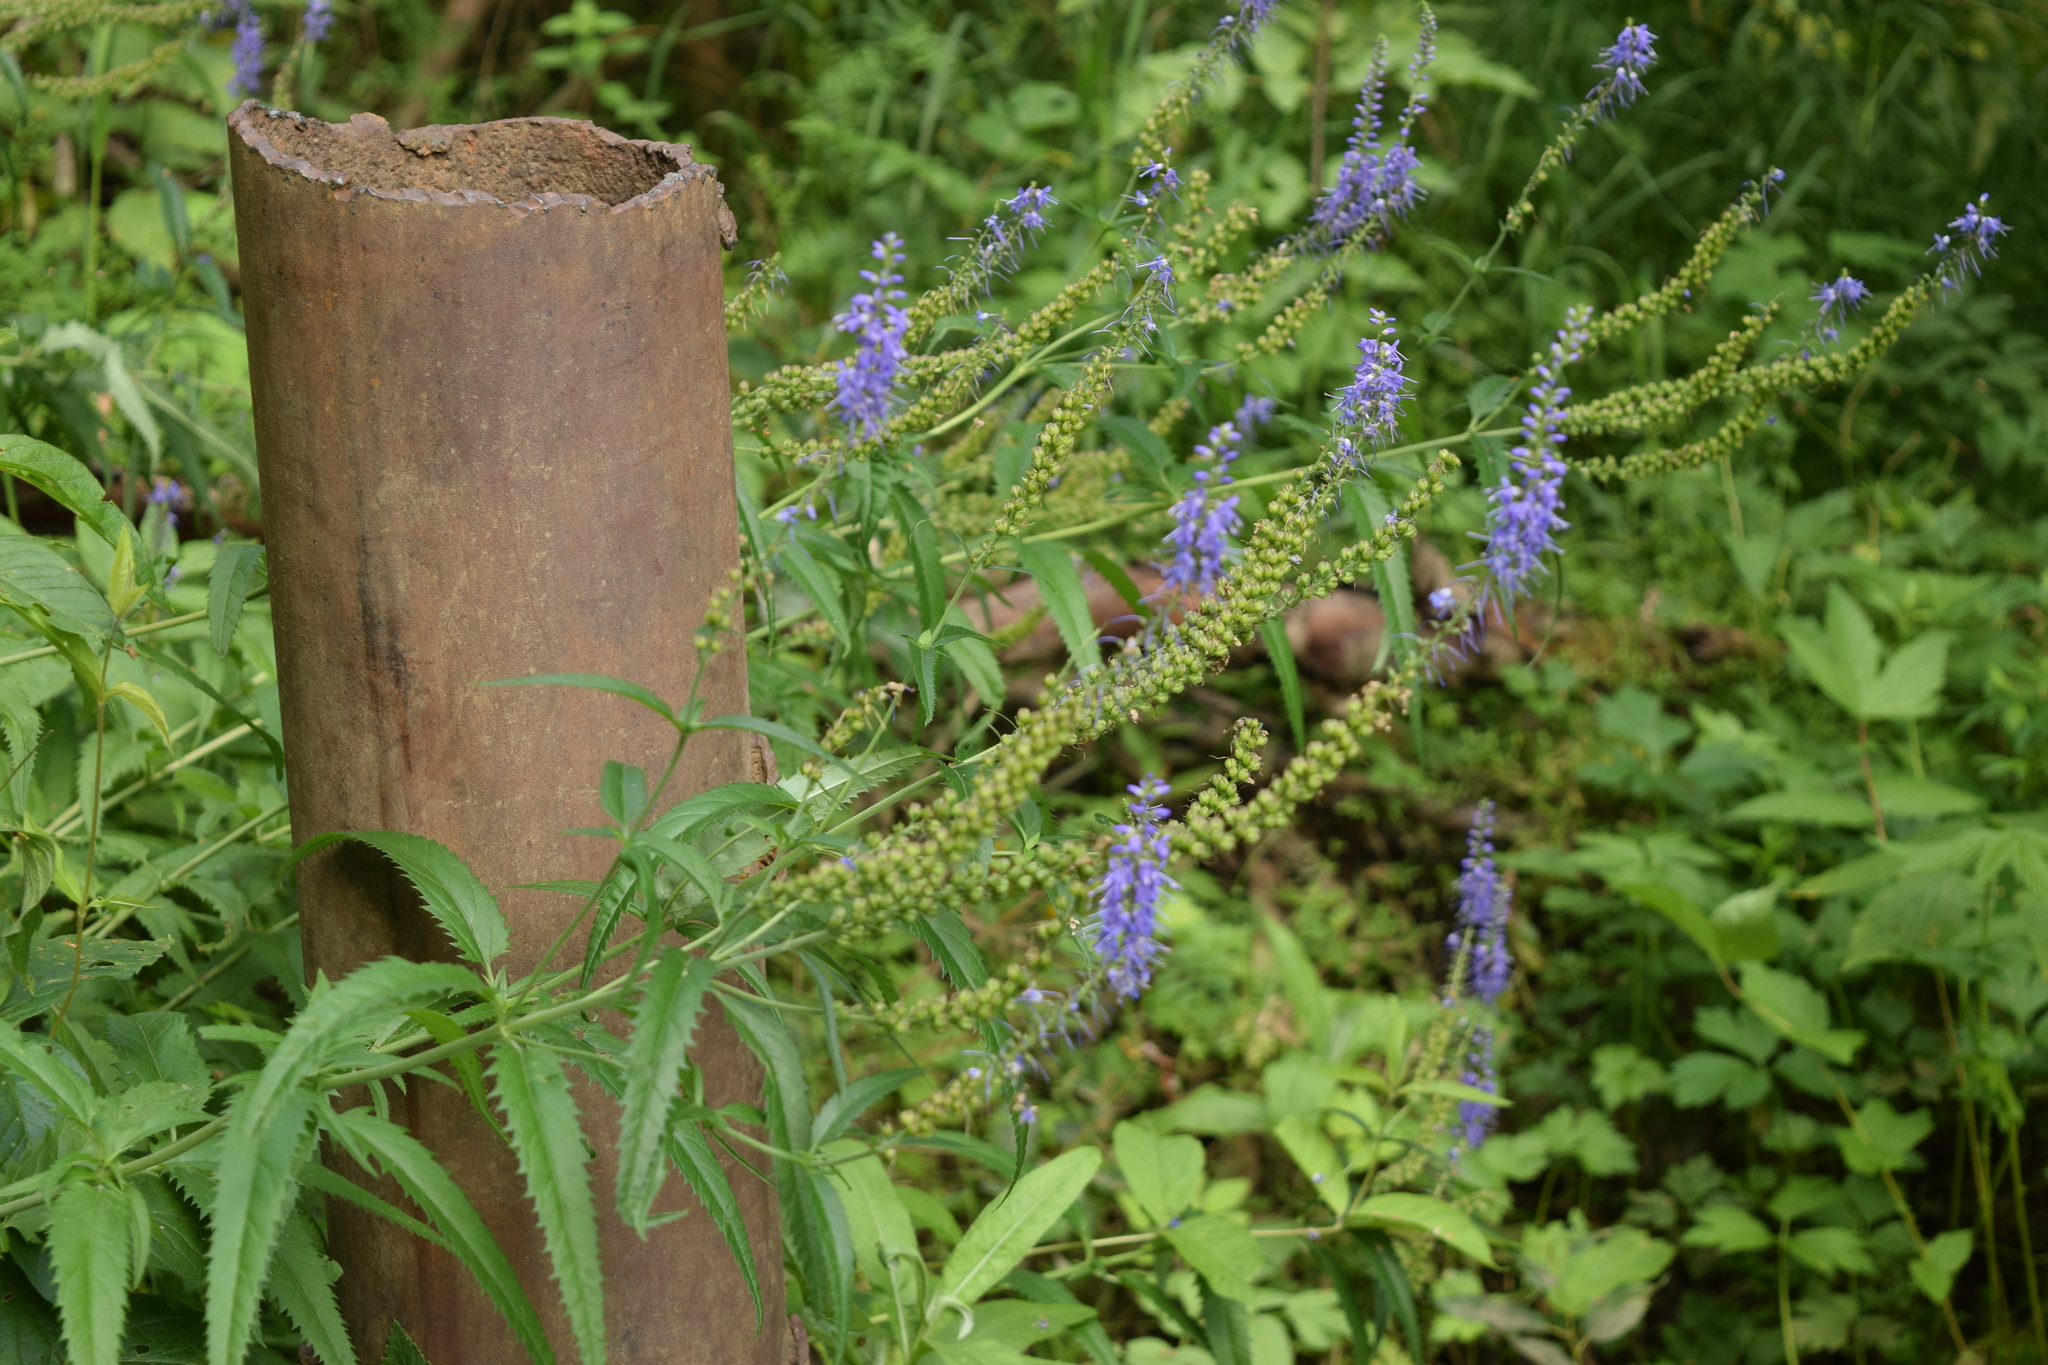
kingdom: Plantae
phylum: Tracheophyta
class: Magnoliopsida
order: Lamiales
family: Plantaginaceae
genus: Veronica
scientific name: Veronica longifolia
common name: Garden speedwell
